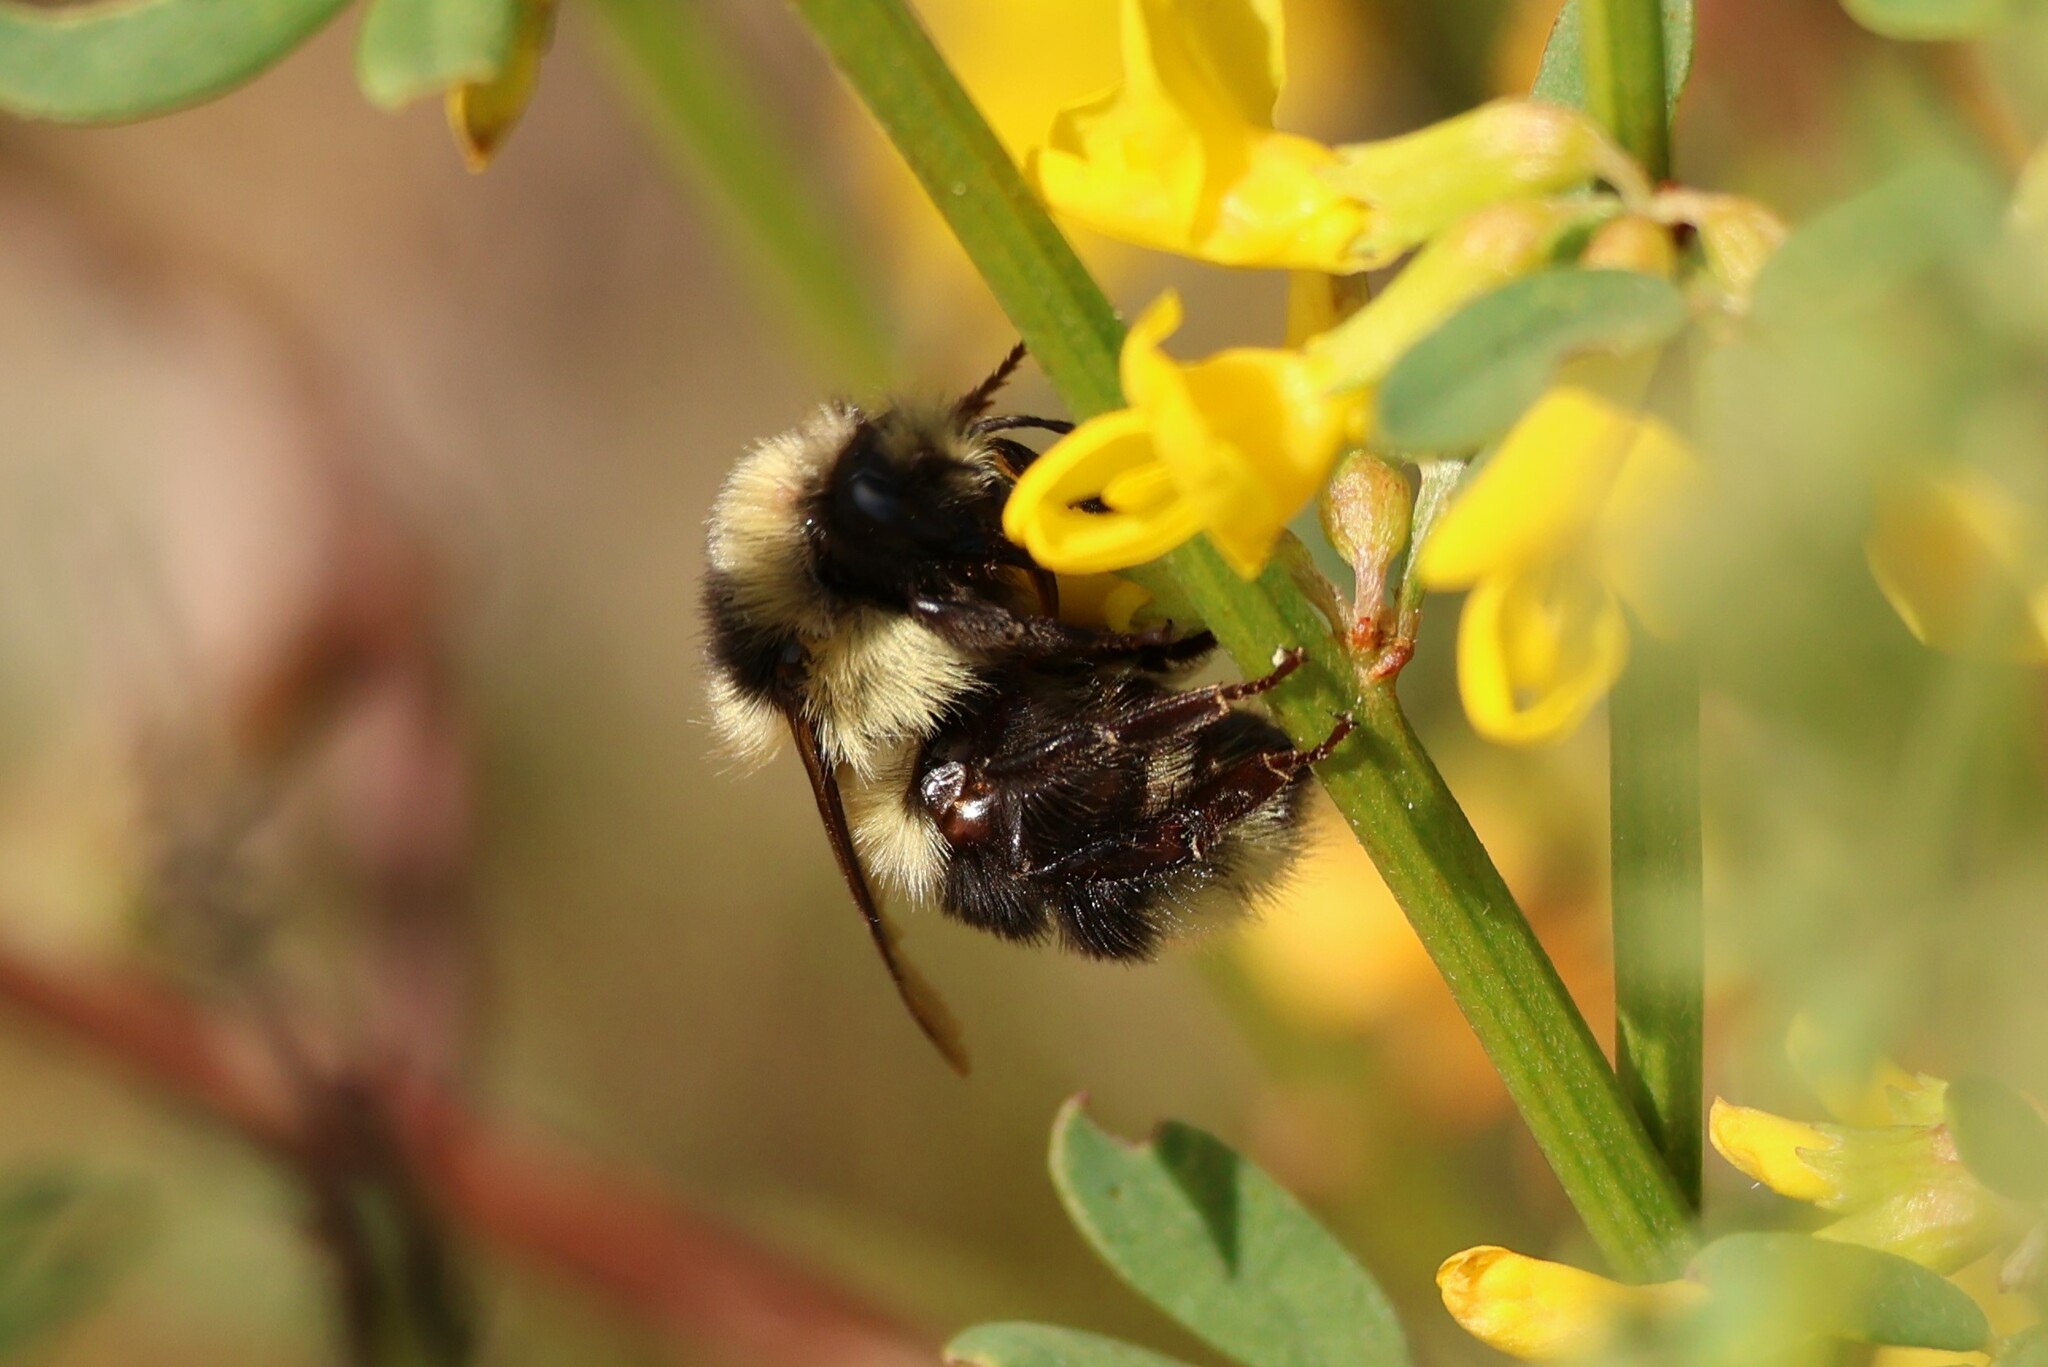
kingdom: Animalia
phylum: Arthropoda
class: Insecta
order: Hymenoptera
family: Apidae
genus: Bombus
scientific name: Bombus melanopygus
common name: Black tail bumble bee
